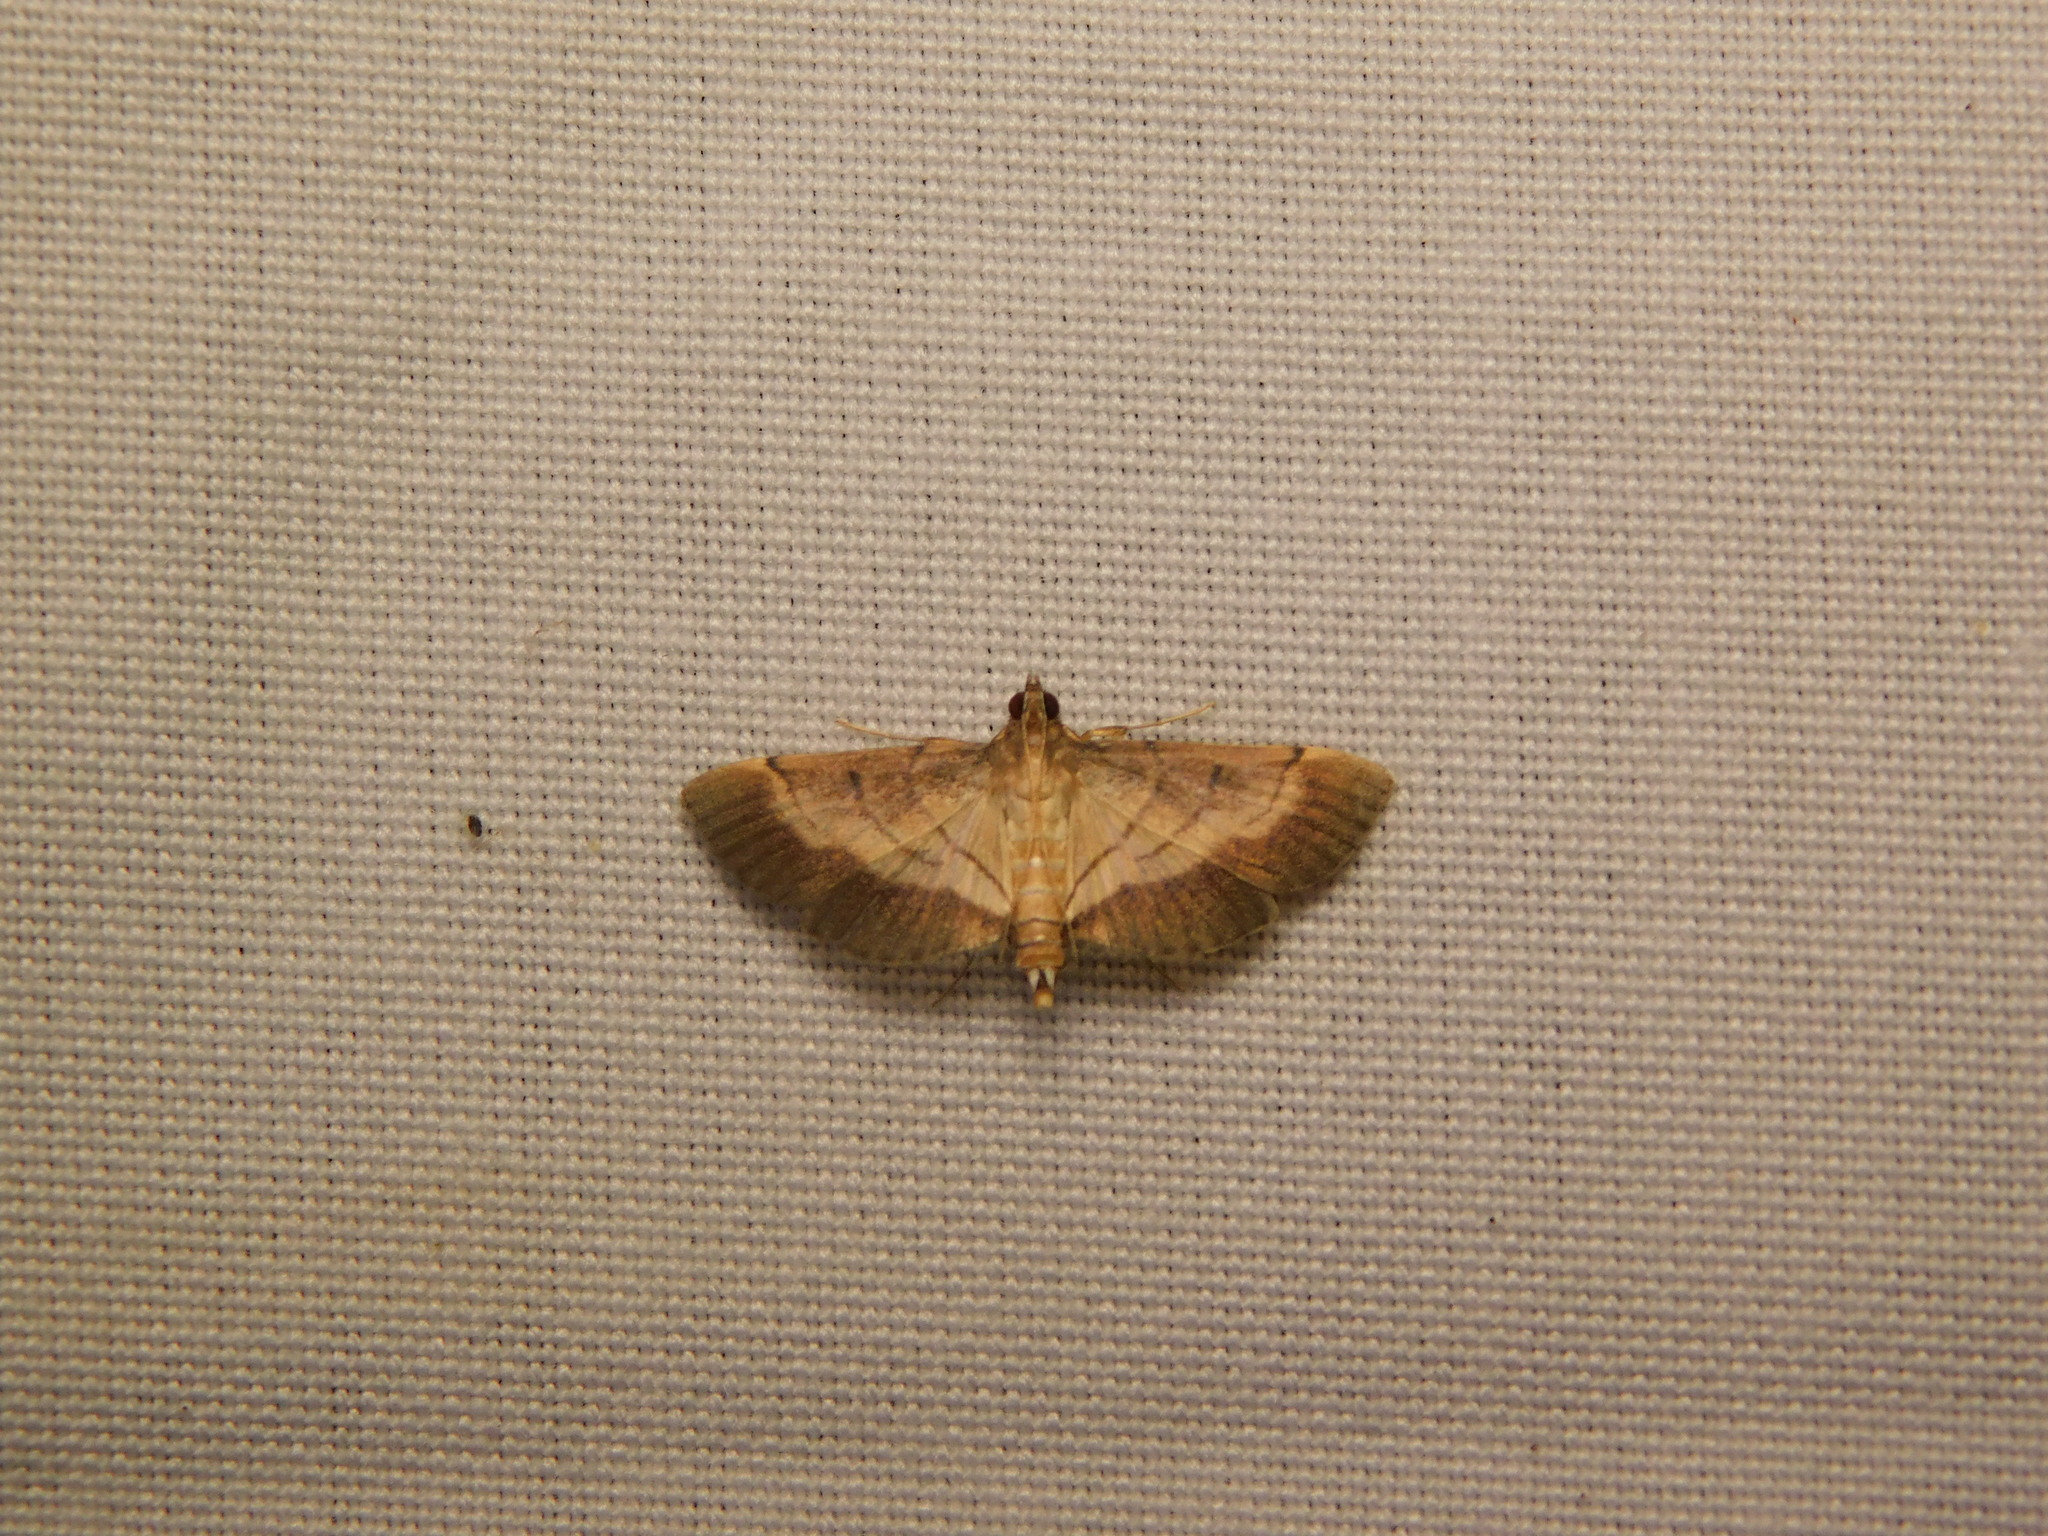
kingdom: Animalia
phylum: Arthropoda
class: Insecta
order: Lepidoptera
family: Crambidae
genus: Cnaphalocrocis
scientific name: Cnaphalocrocis latimarginalis
